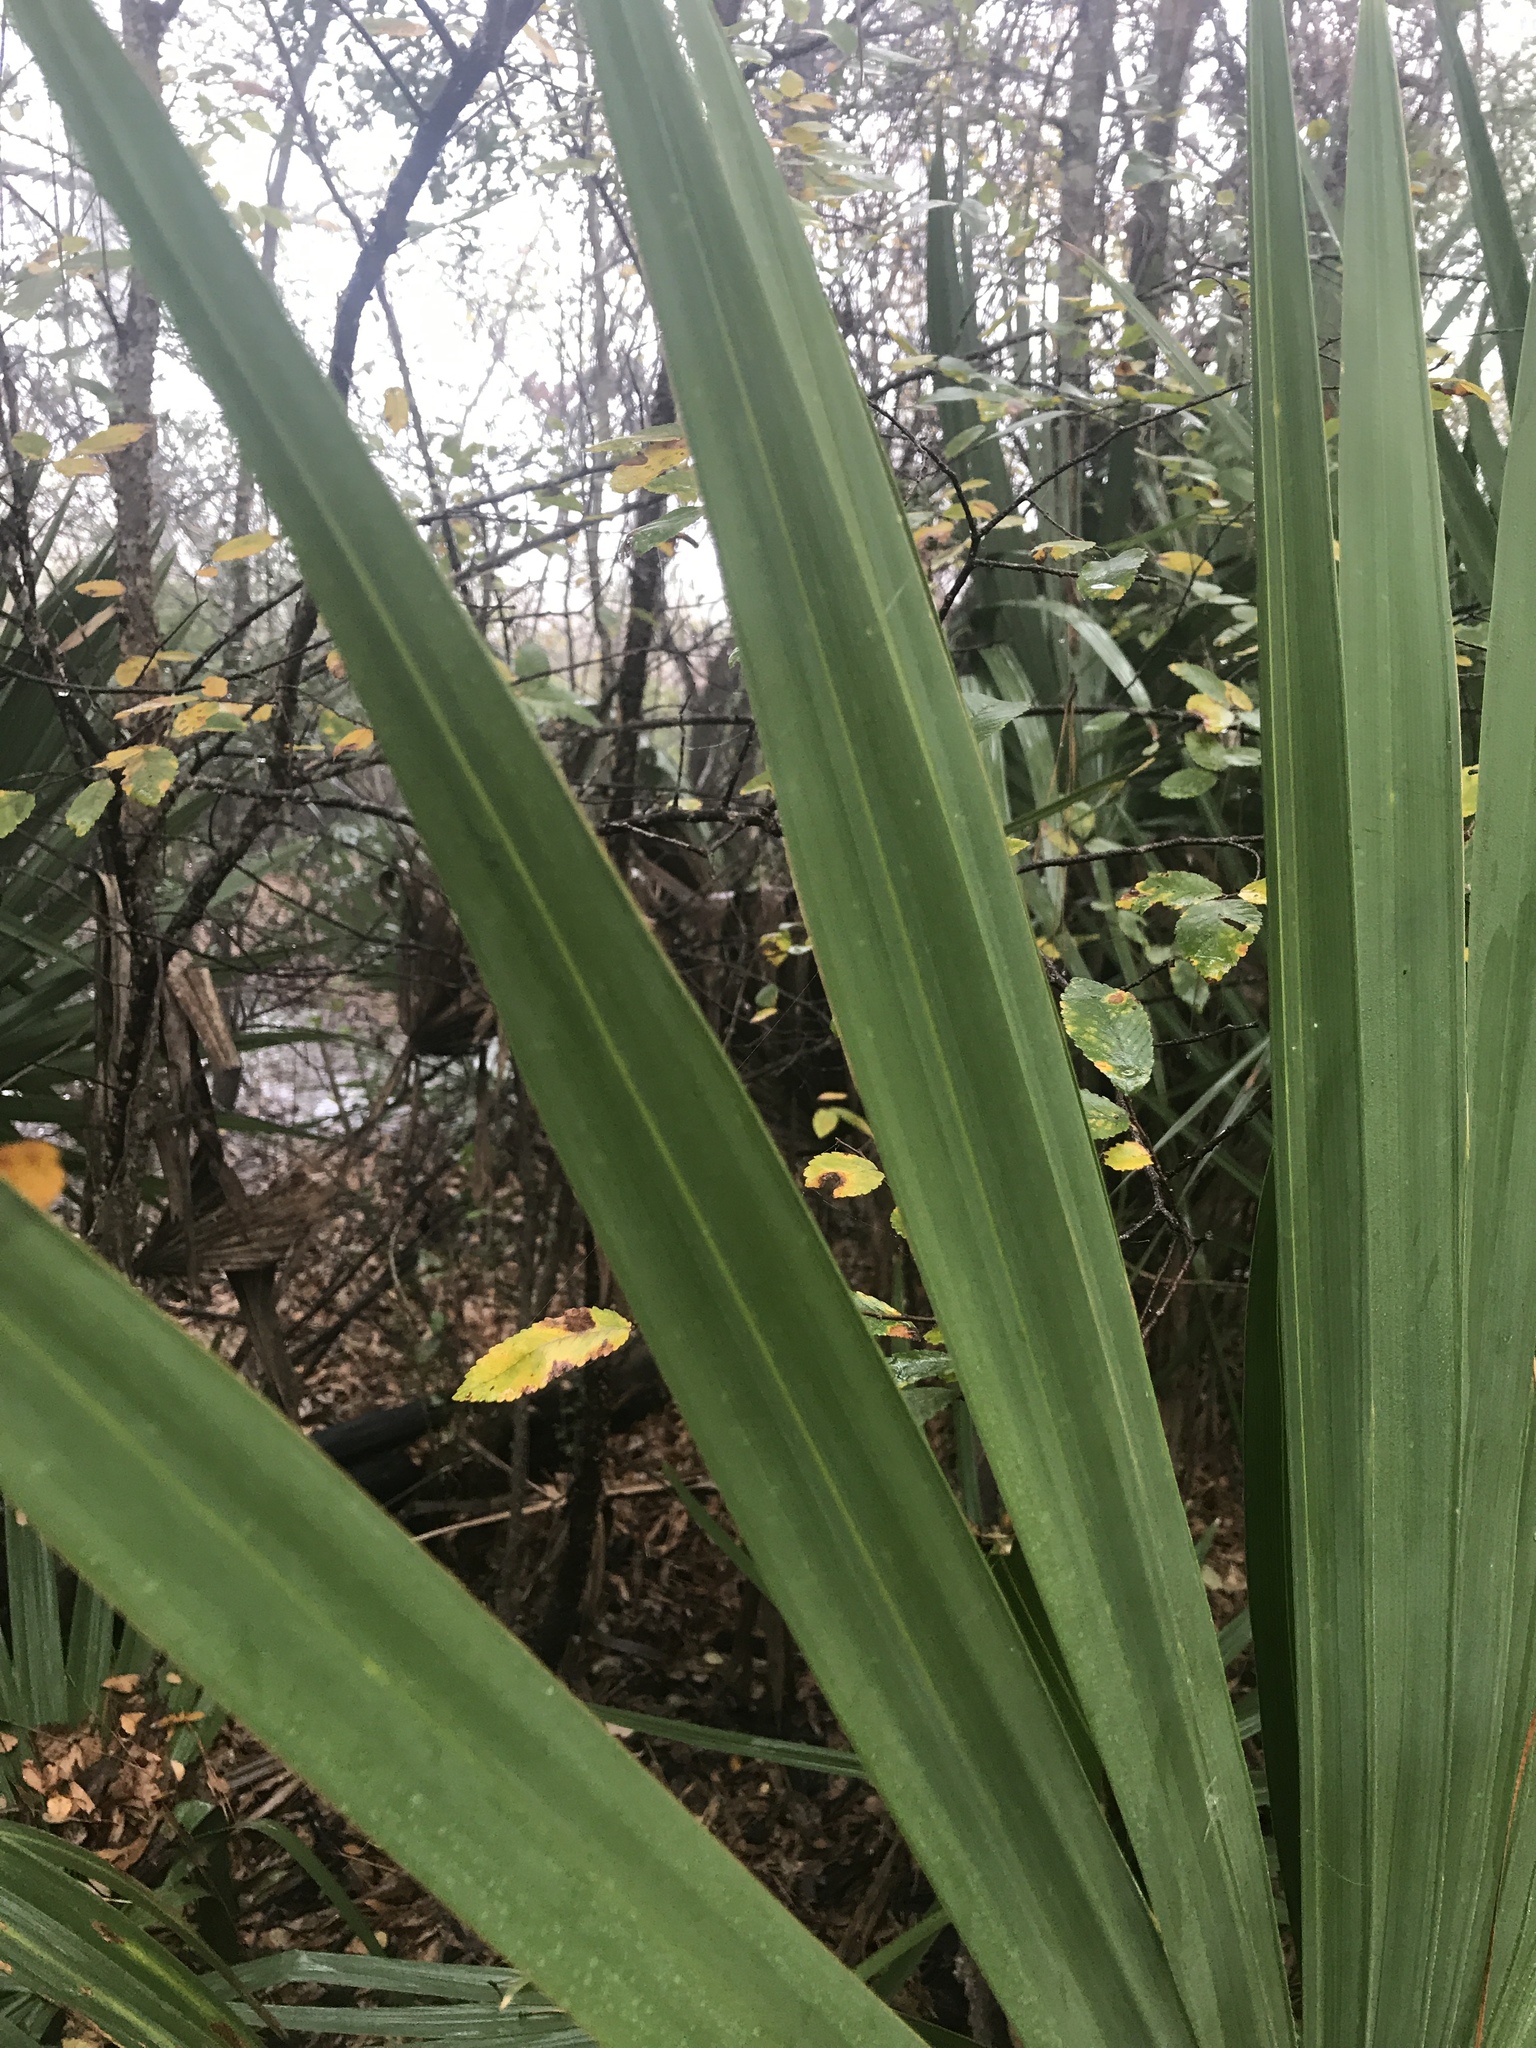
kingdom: Plantae
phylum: Tracheophyta
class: Liliopsida
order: Arecales
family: Arecaceae
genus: Sabal
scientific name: Sabal minor
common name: Dwarf palmetto
